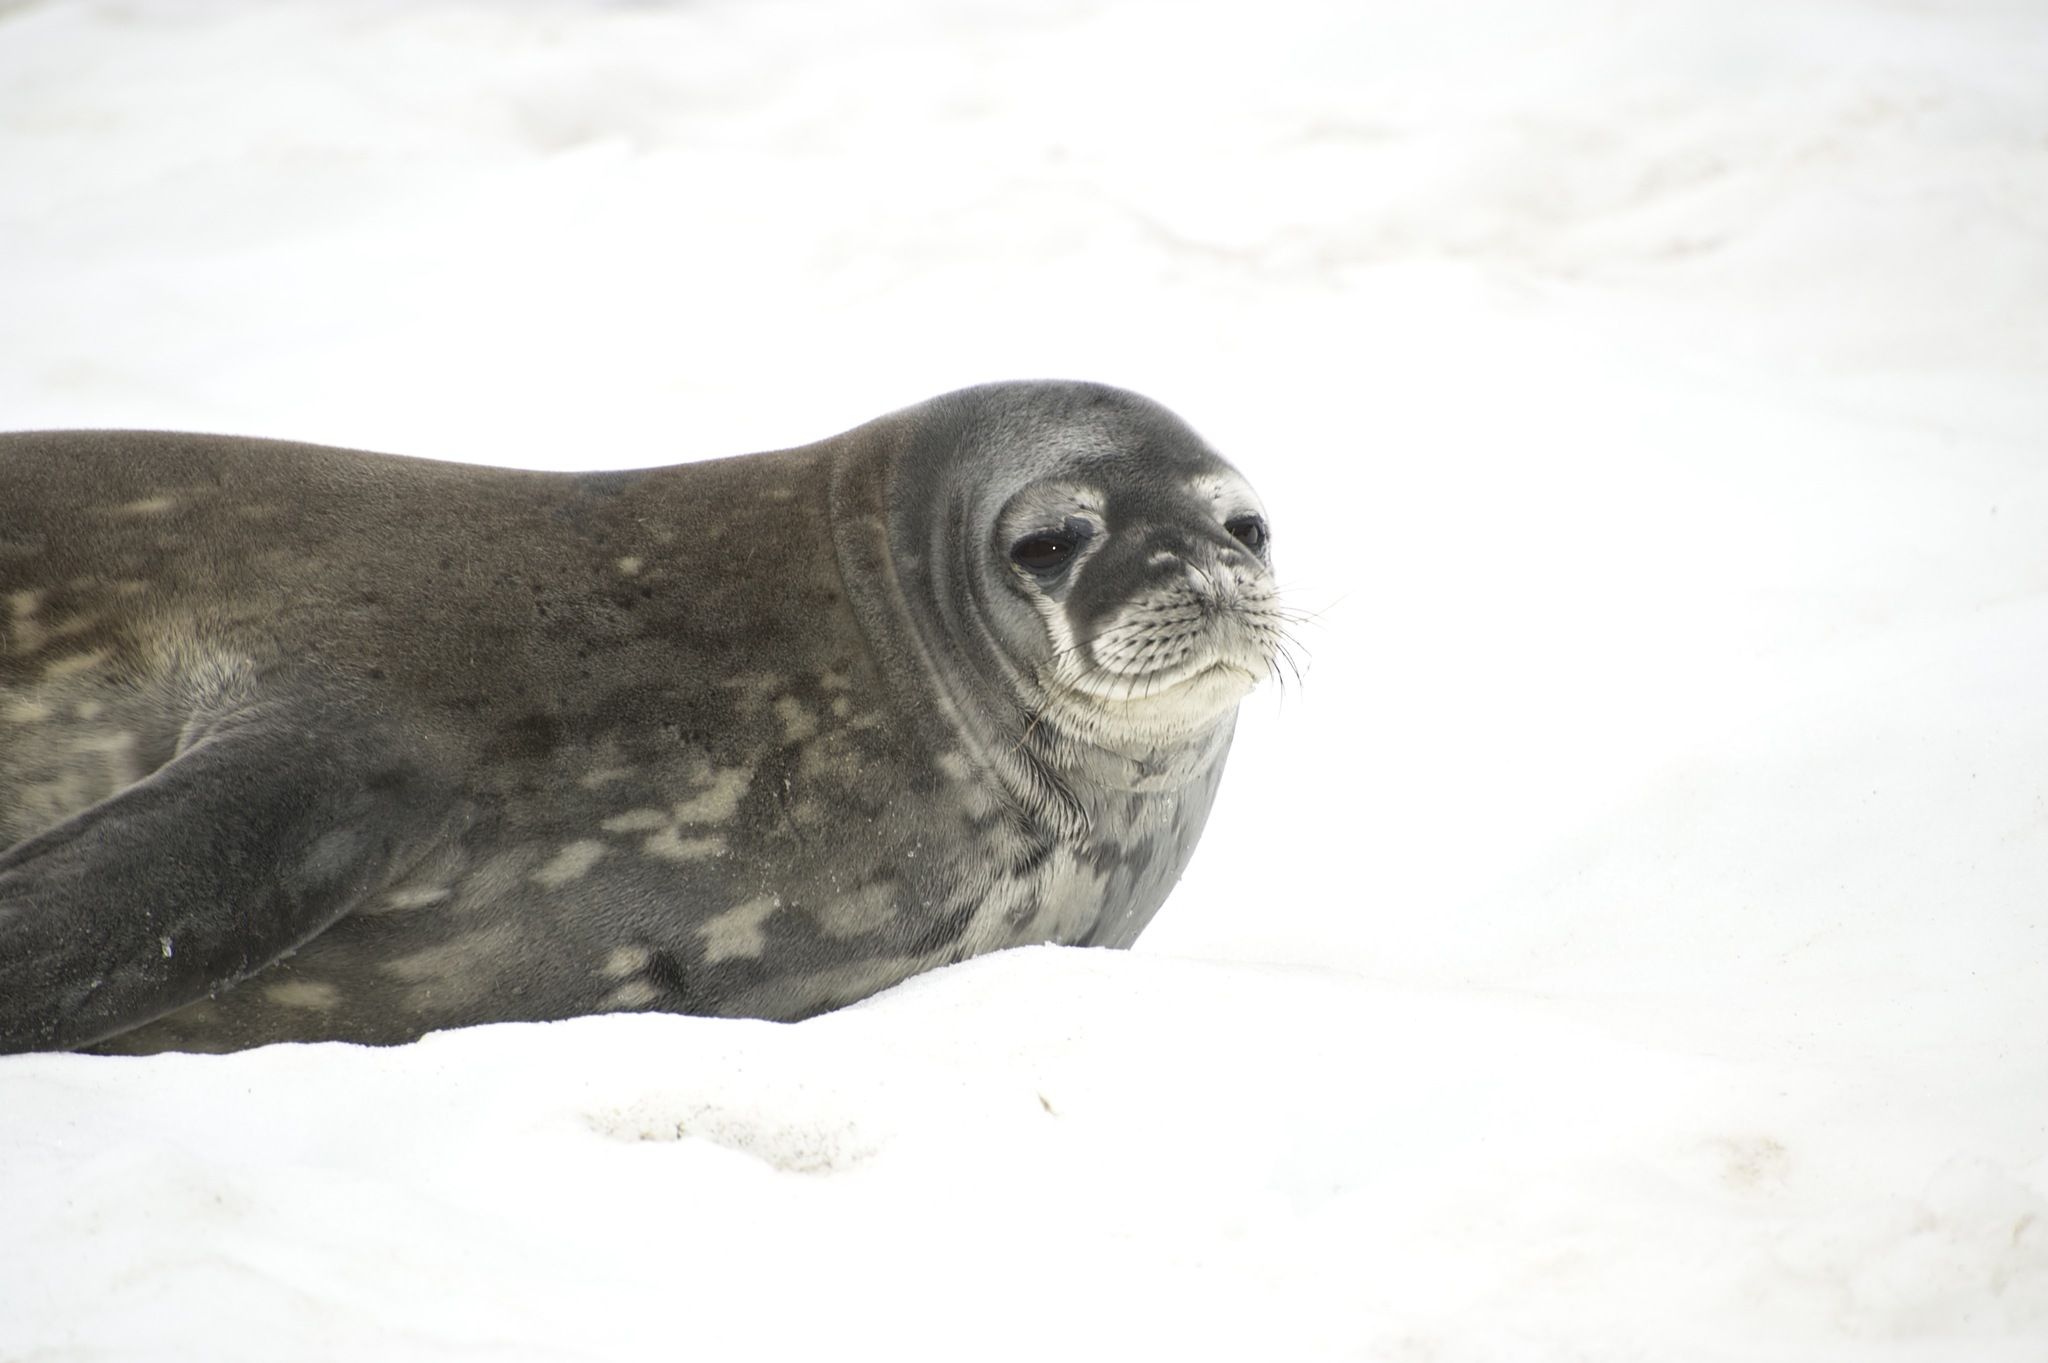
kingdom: Animalia
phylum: Chordata
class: Mammalia
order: Carnivora
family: Phocidae
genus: Leptonychotes
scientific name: Leptonychotes weddellii
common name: Weddell seal
